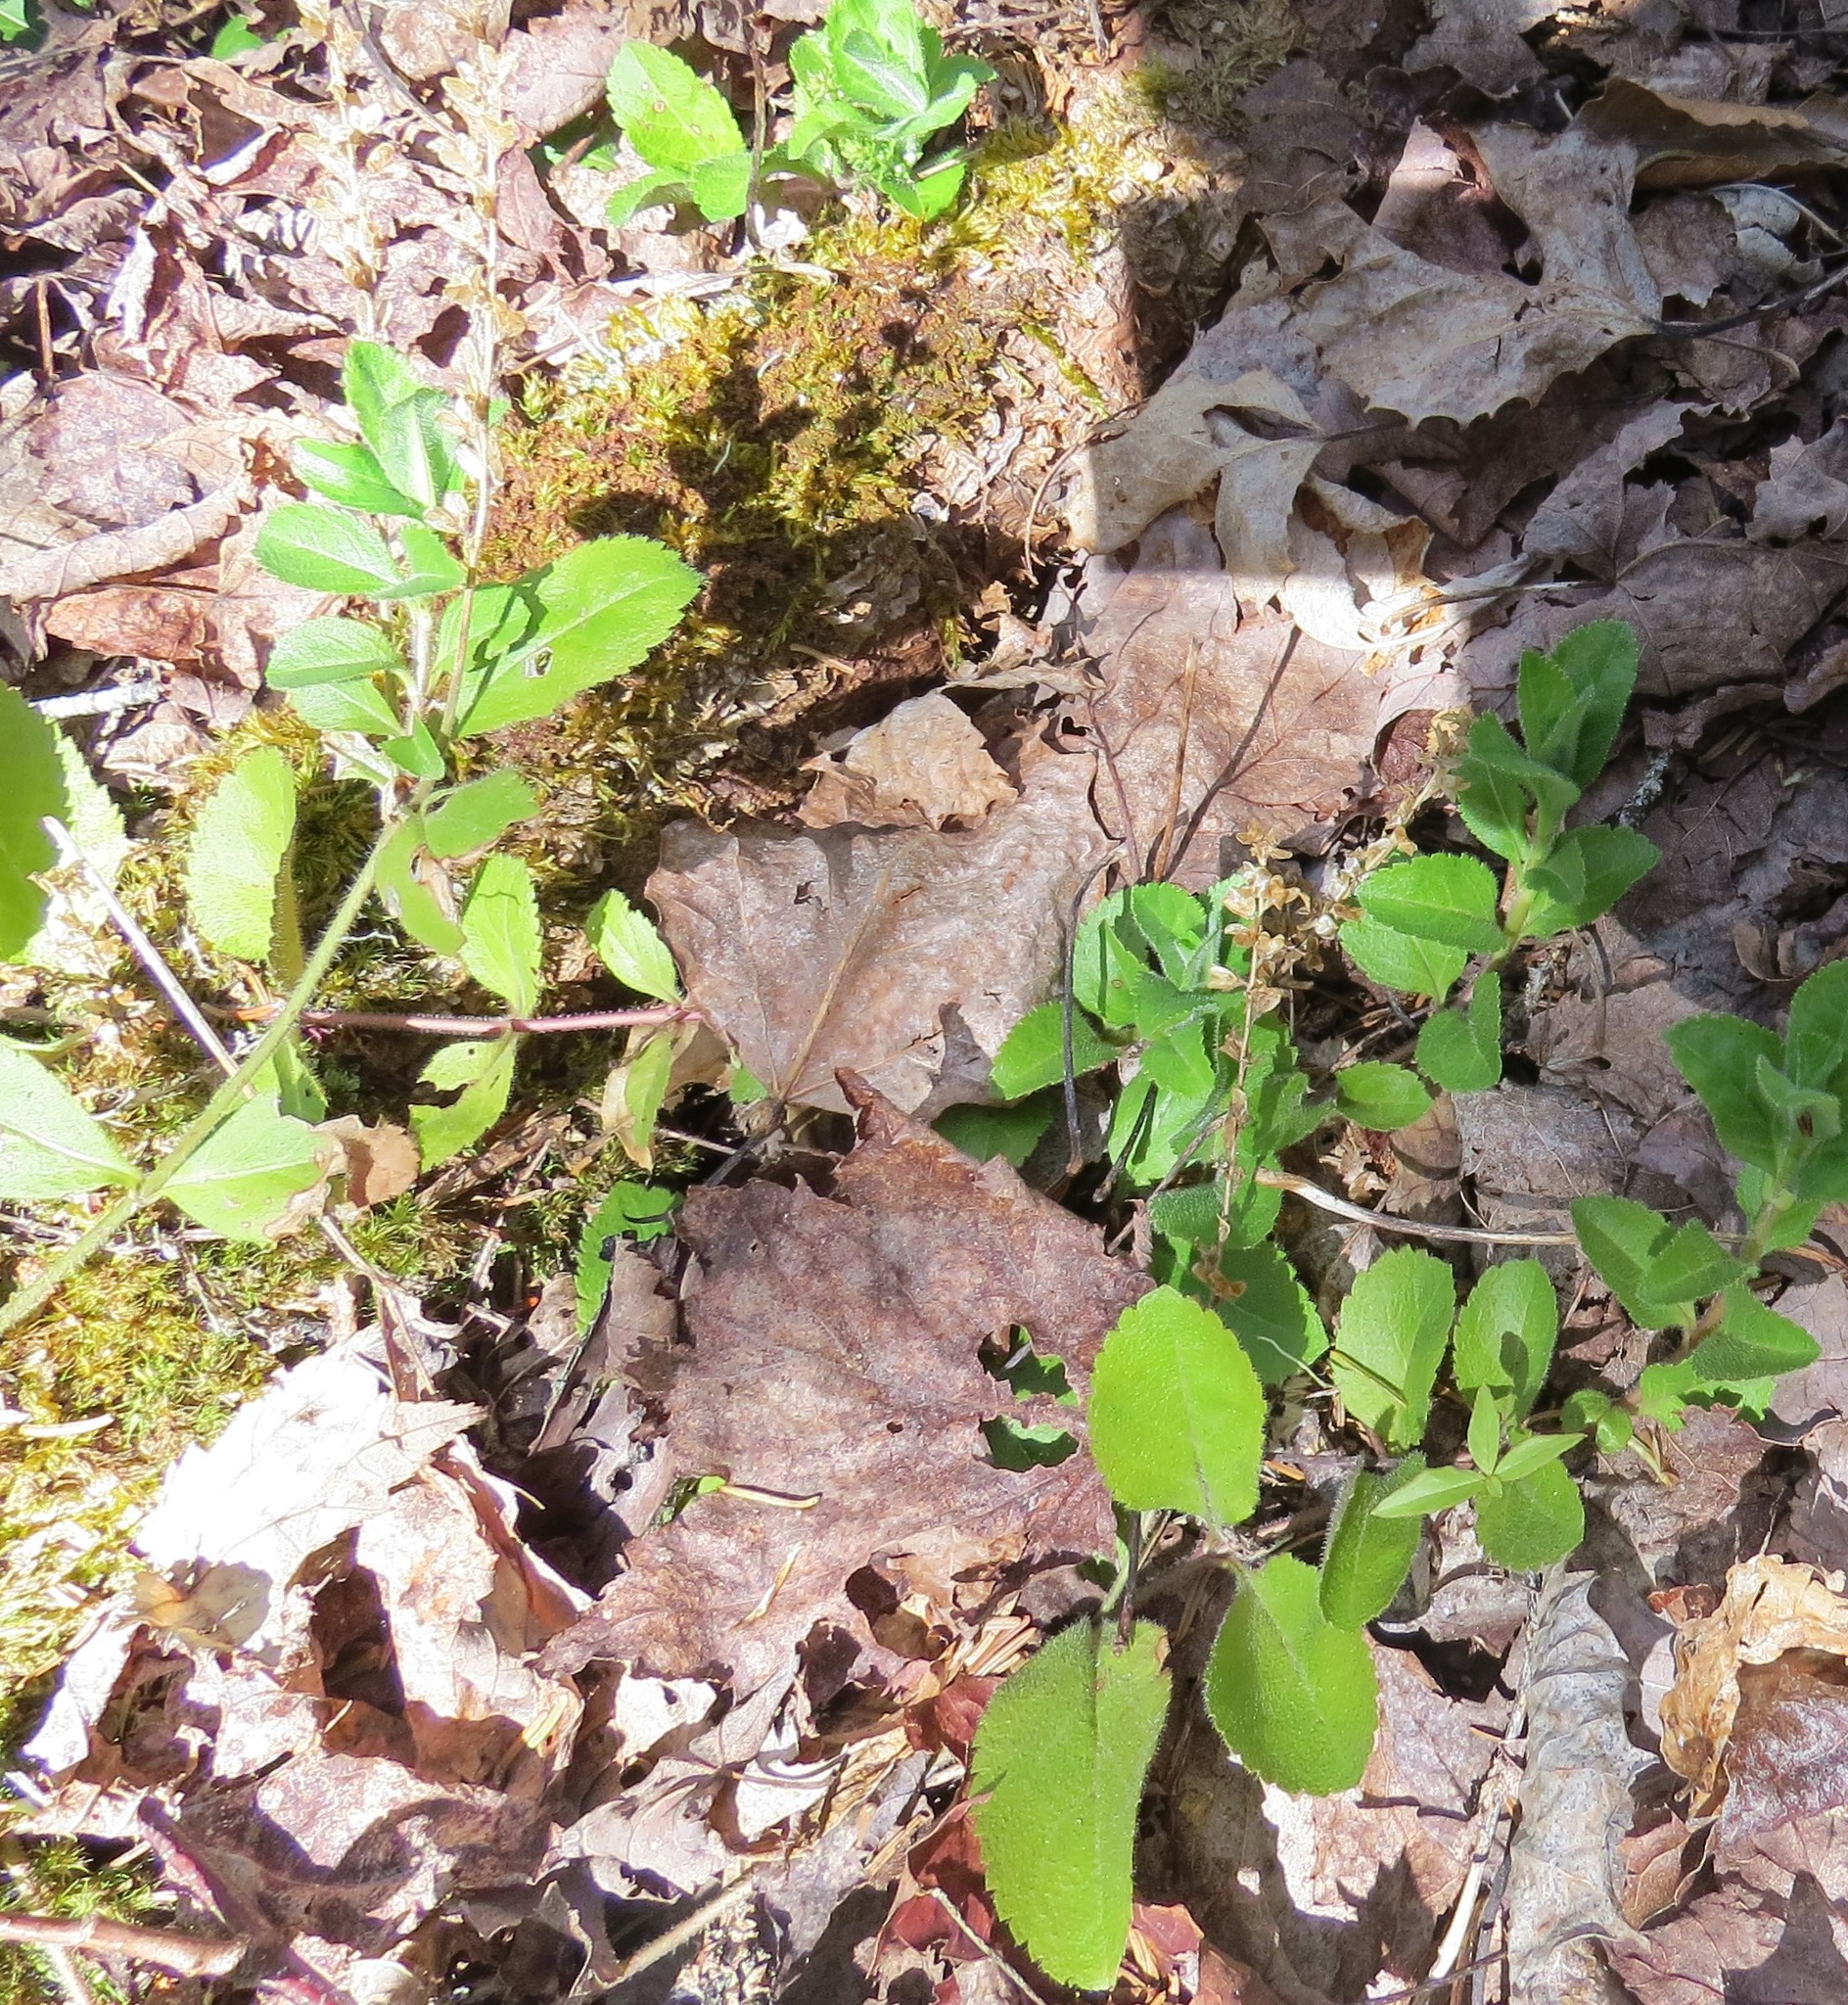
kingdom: Plantae
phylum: Tracheophyta
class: Magnoliopsida
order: Lamiales
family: Plantaginaceae
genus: Veronica
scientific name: Veronica officinalis
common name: Common speedwell
